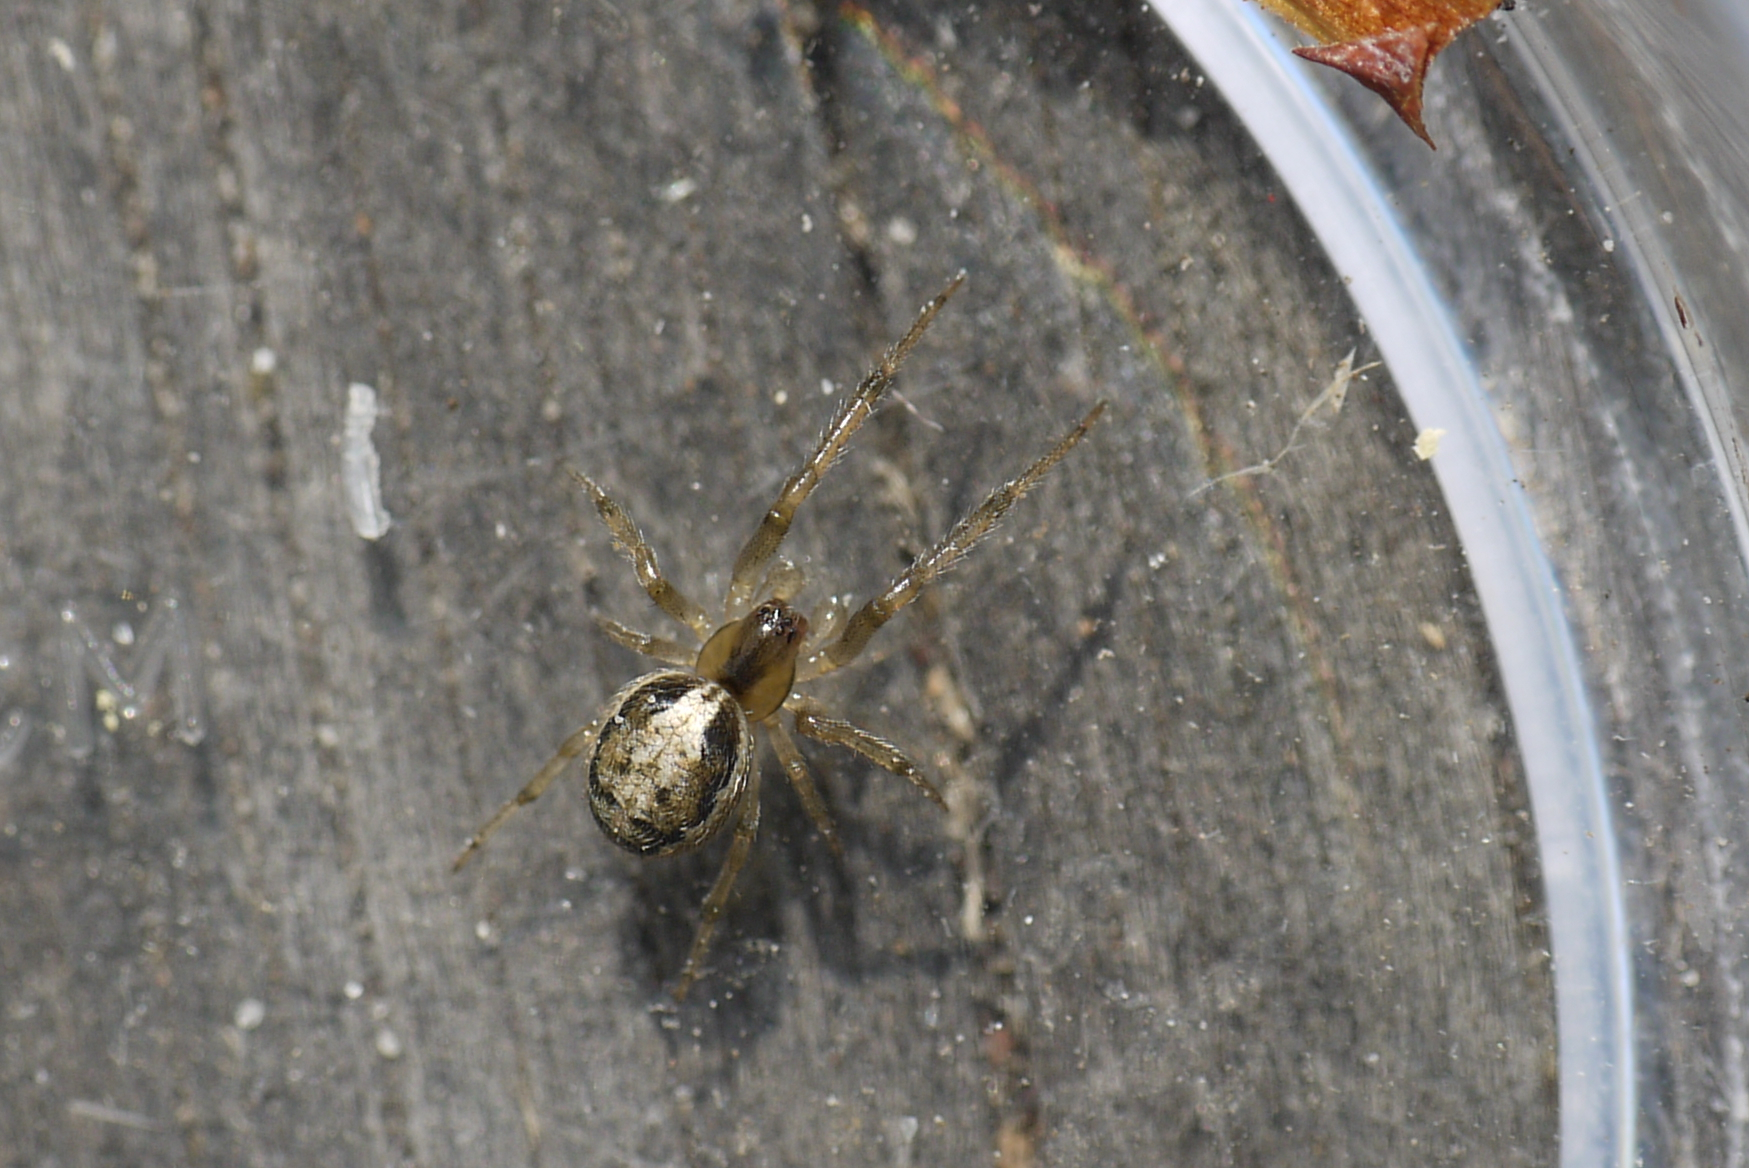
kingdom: Animalia
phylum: Arthropoda
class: Arachnida
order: Araneae
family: Araneidae
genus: Zygiella
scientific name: Zygiella x-notata
